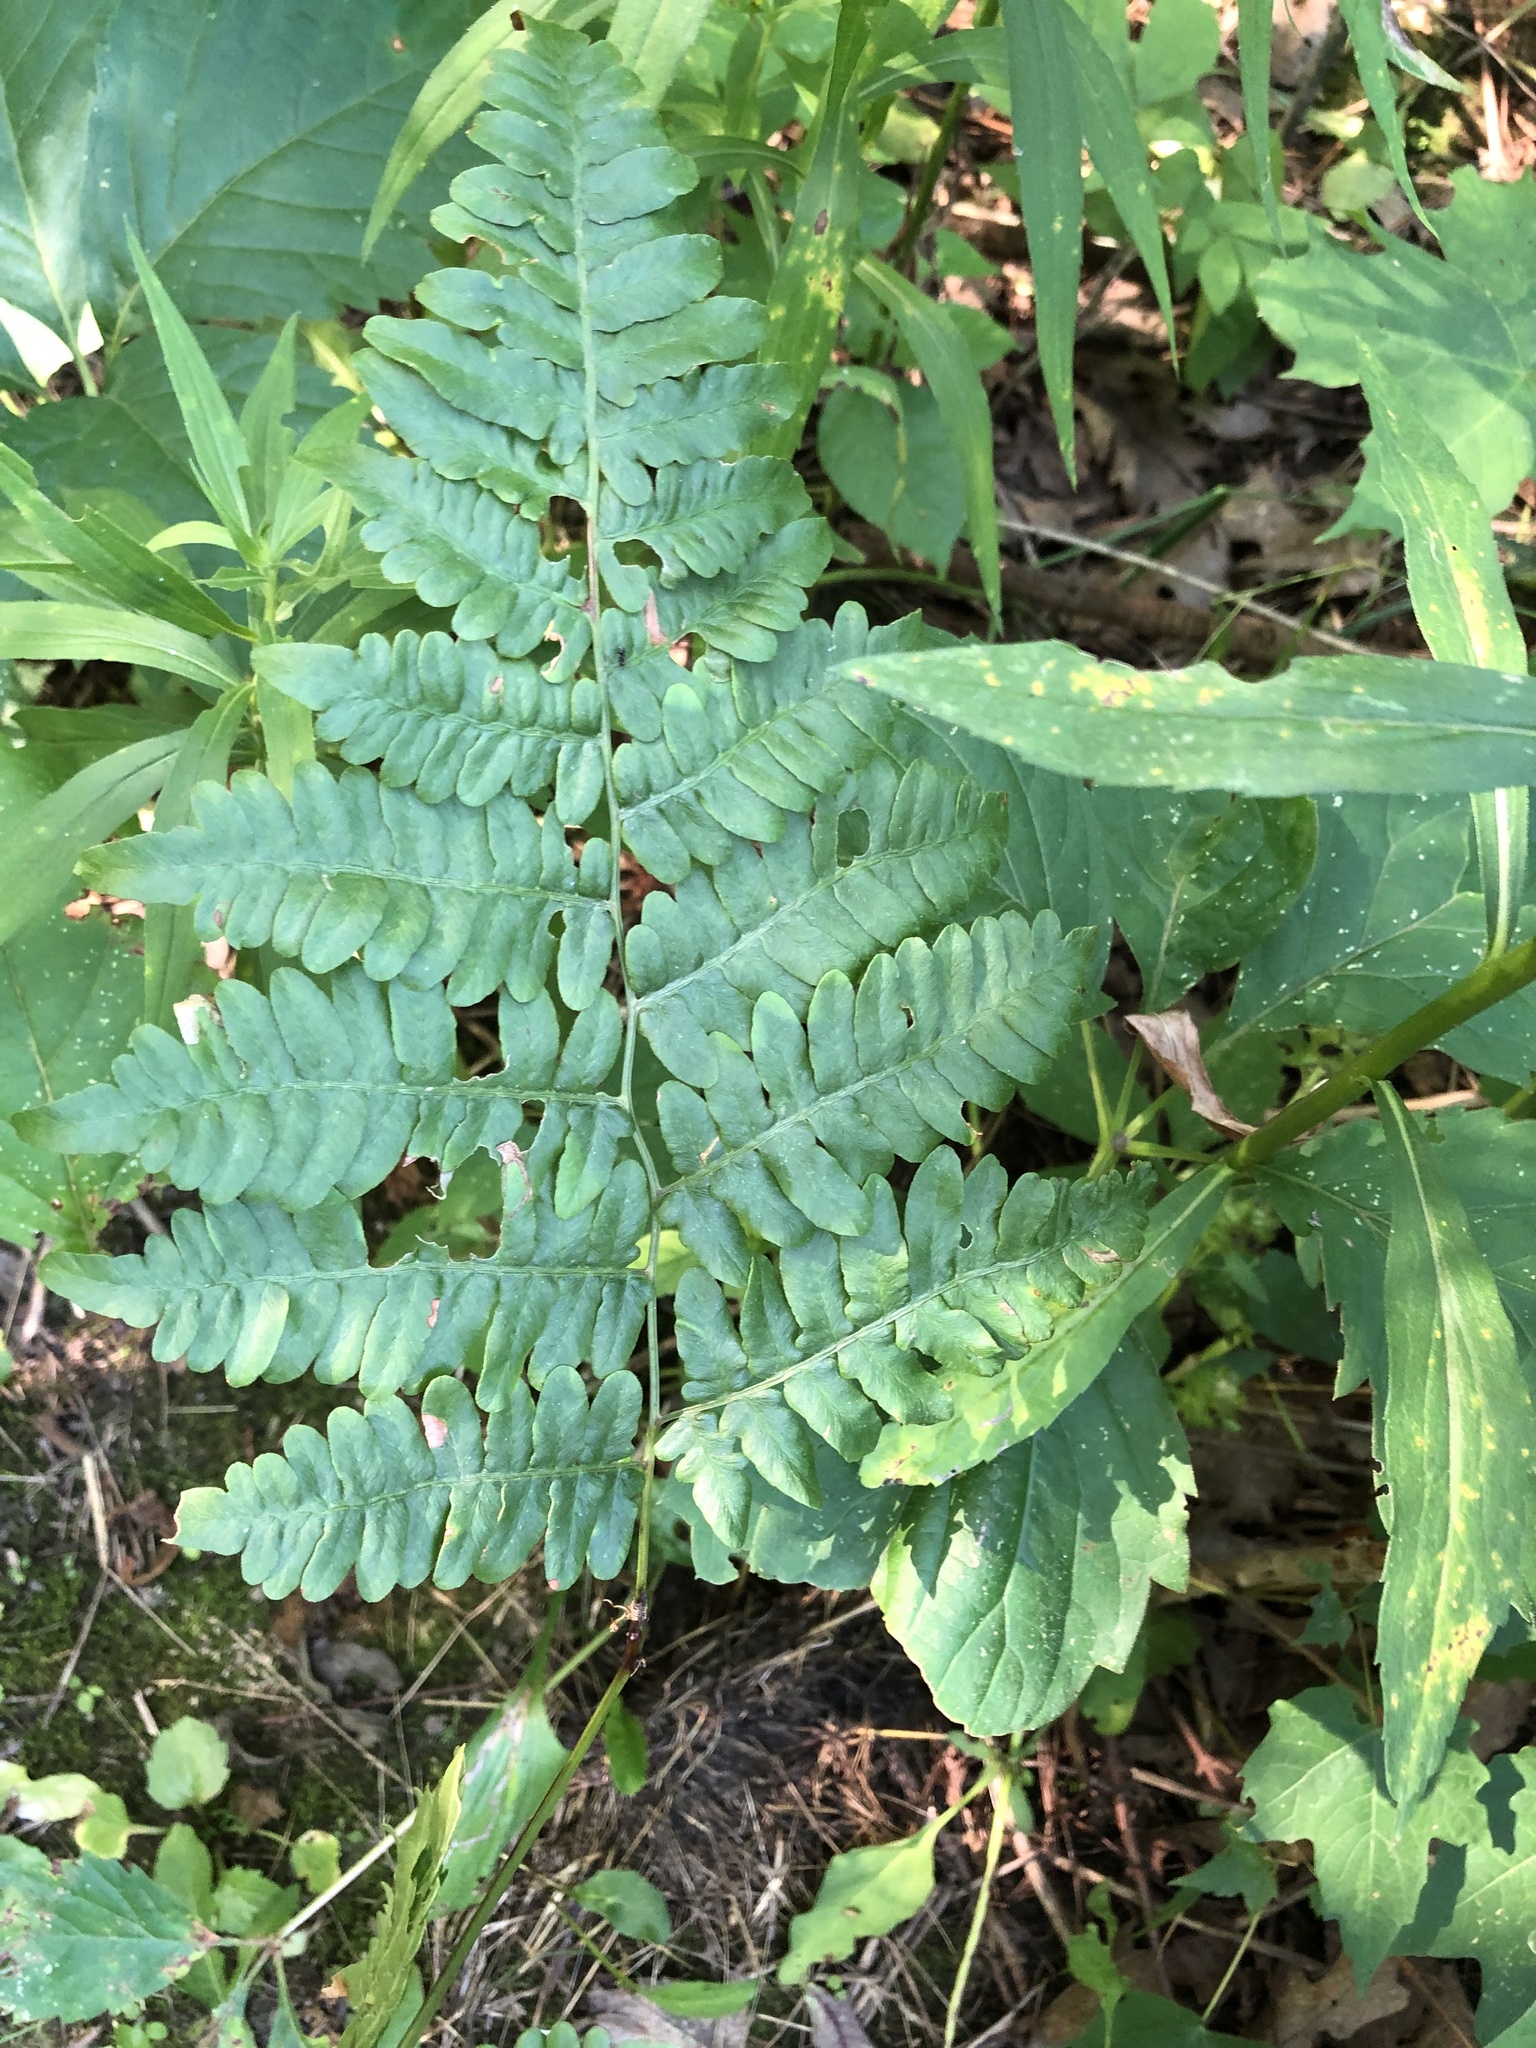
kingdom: Plantae
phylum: Tracheophyta
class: Polypodiopsida
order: Polypodiales
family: Dennstaedtiaceae
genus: Pteridium
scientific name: Pteridium aquilinum
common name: Bracken
